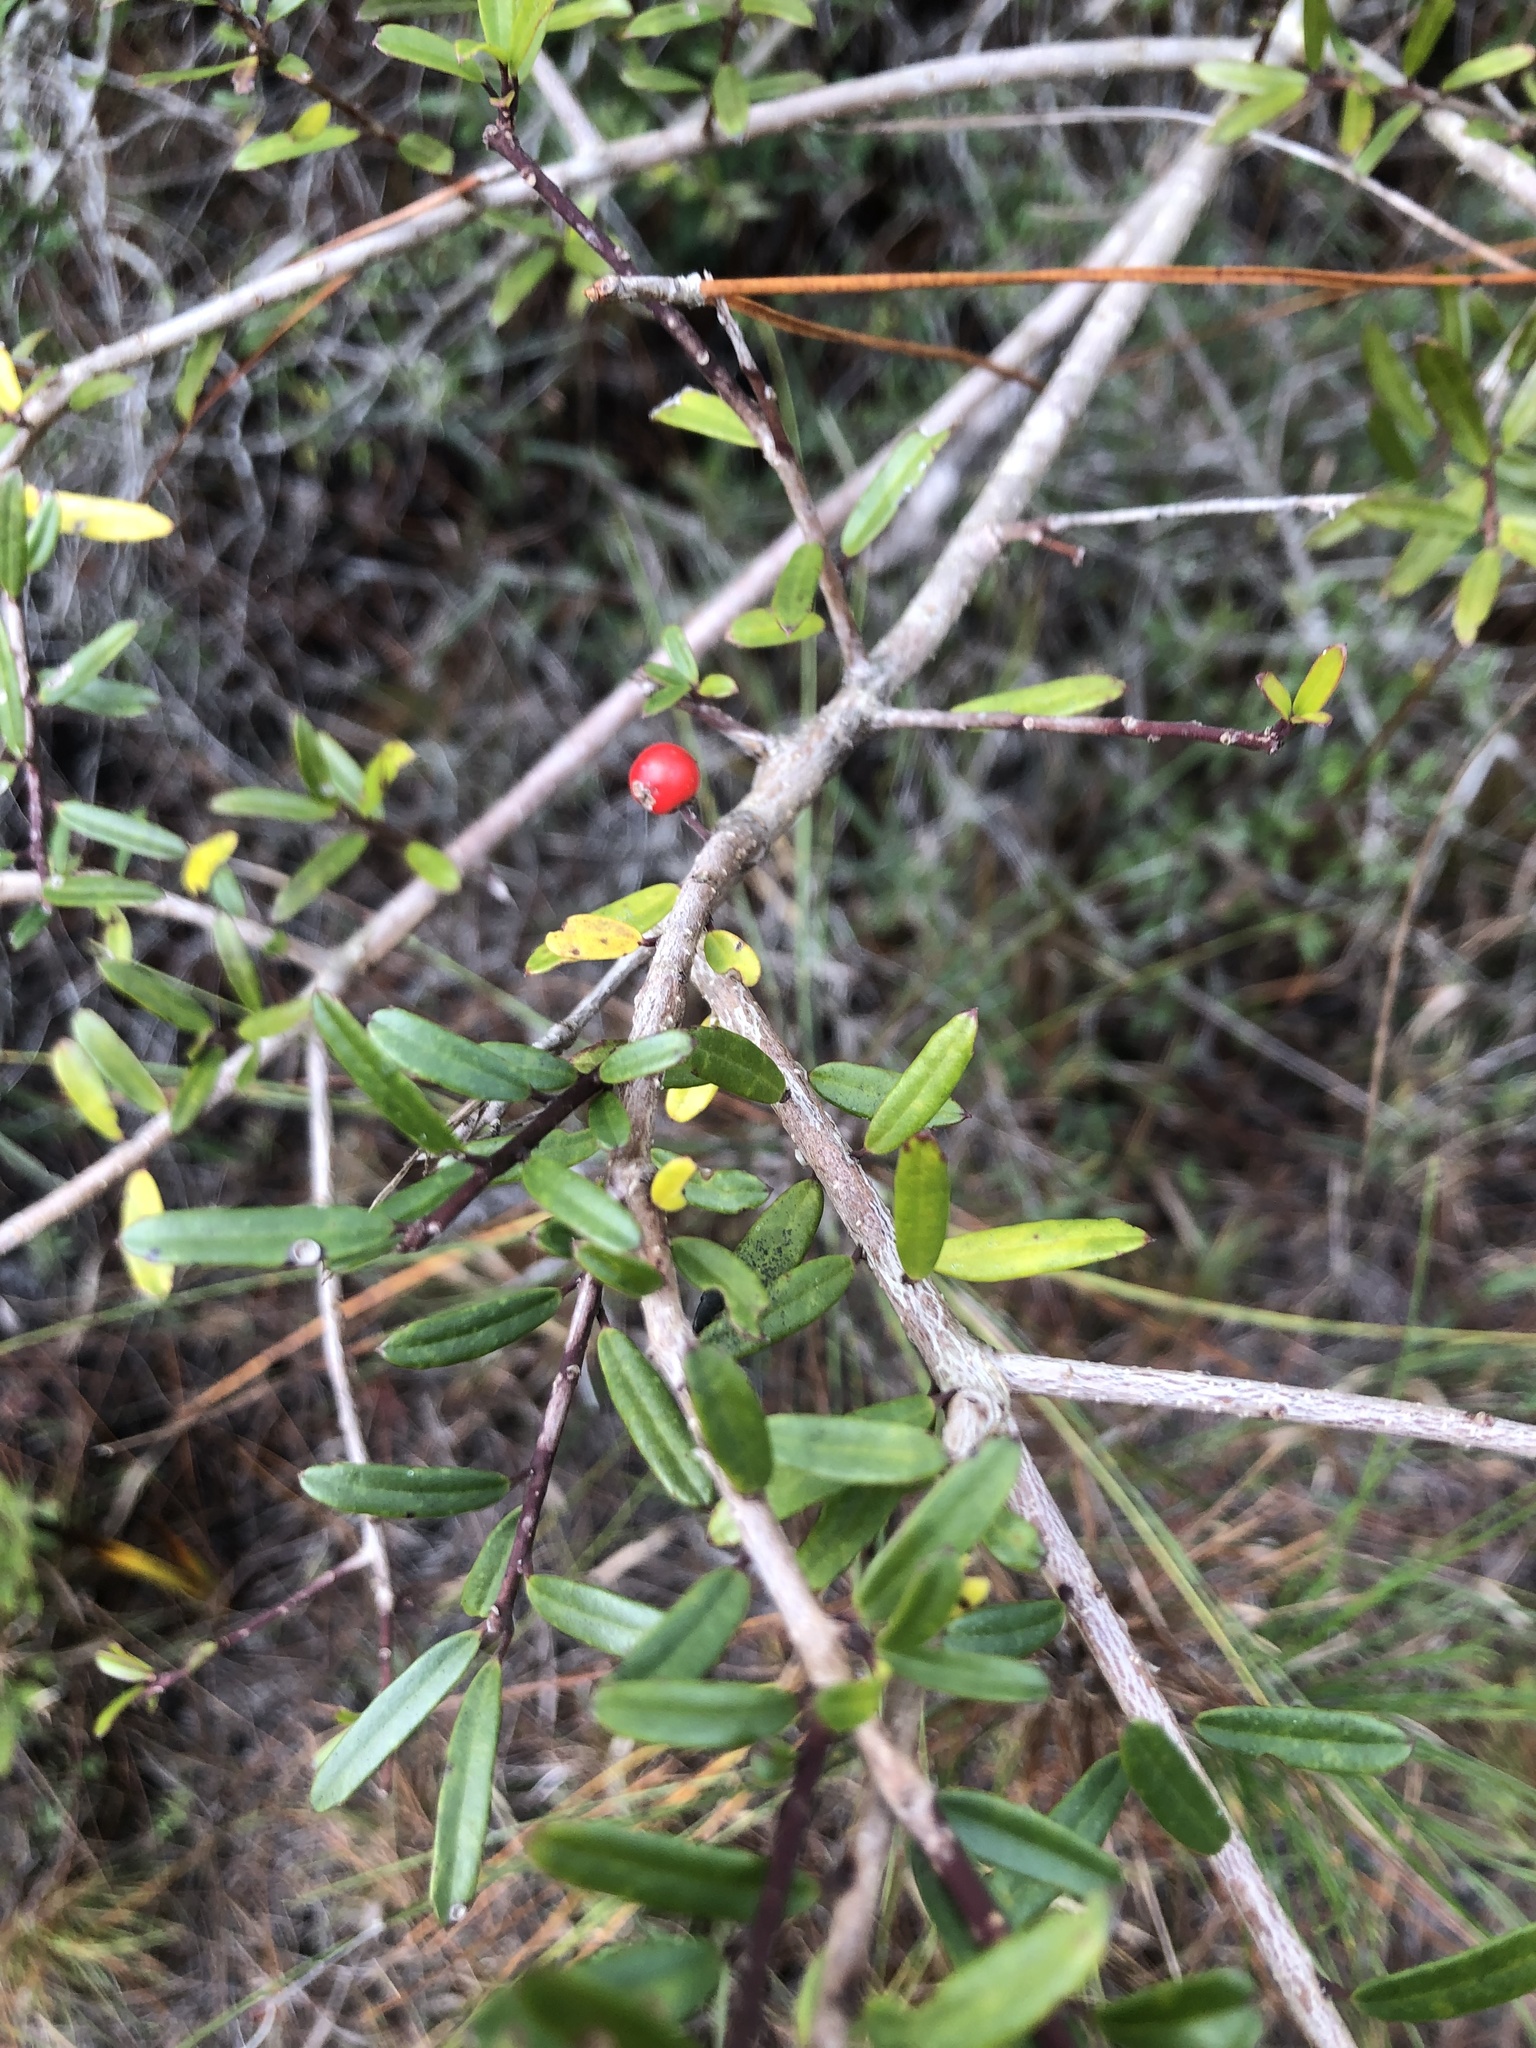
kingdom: Plantae
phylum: Tracheophyta
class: Magnoliopsida
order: Aquifoliales
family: Aquifoliaceae
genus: Ilex
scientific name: Ilex myrtifolia
